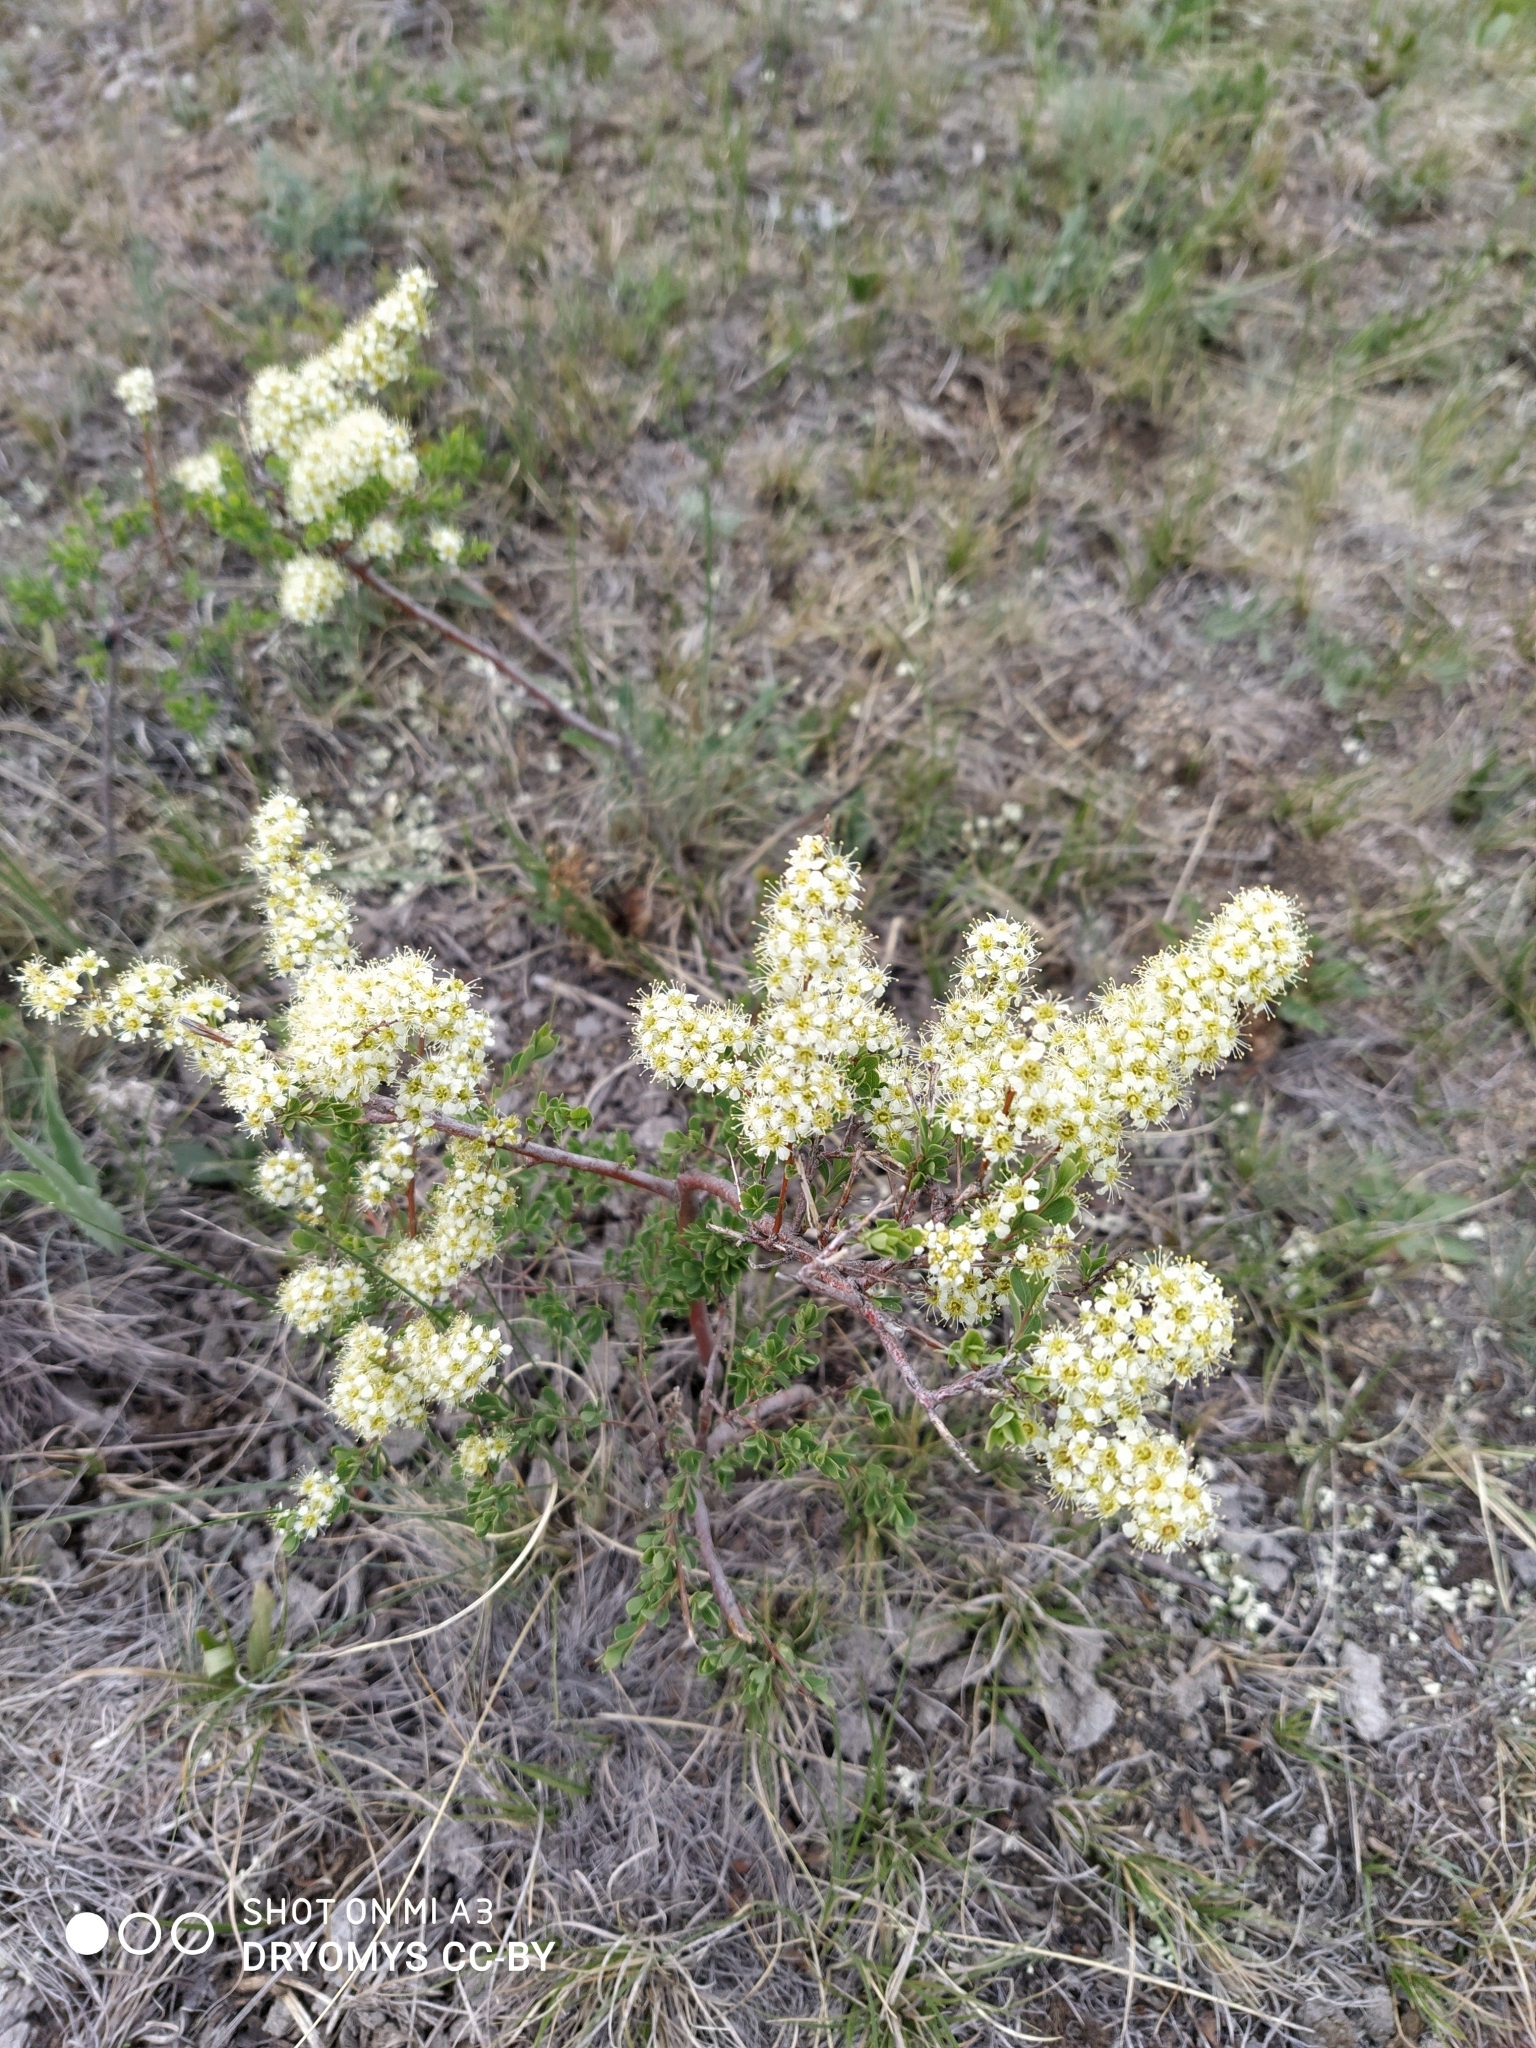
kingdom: Plantae
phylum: Tracheophyta
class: Magnoliopsida
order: Rosales
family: Rosaceae
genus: Spiraea
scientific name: Spiraea hypericifolia
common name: Iberian spirea
